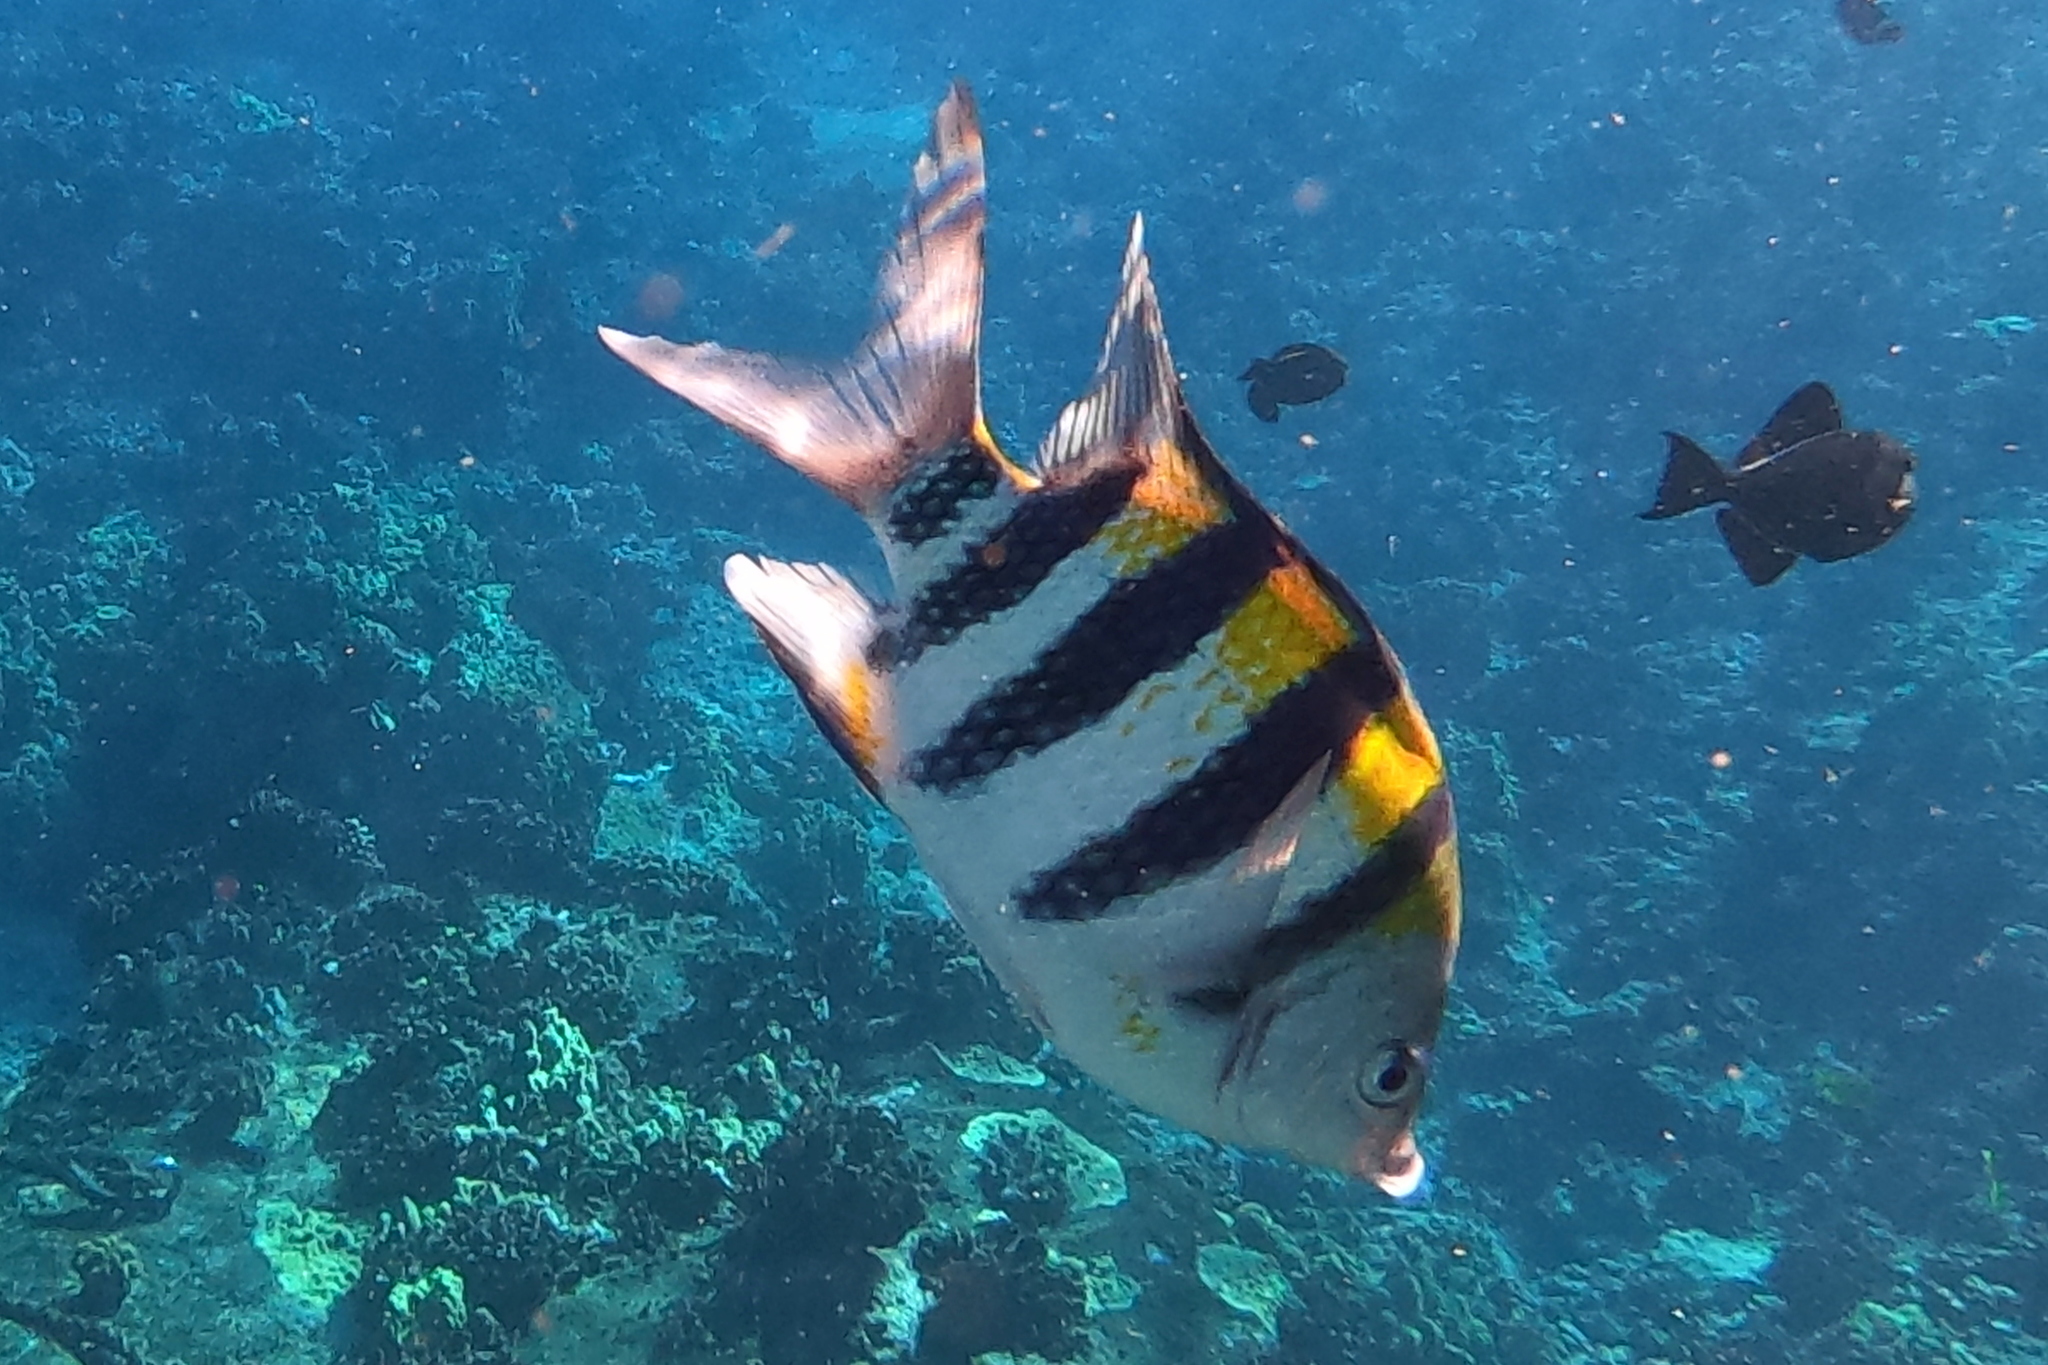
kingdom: Animalia
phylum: Chordata
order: Perciformes
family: Pomacentridae
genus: Abudefduf
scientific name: Abudefduf vaigiensis
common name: Indo-pacific sergeant
